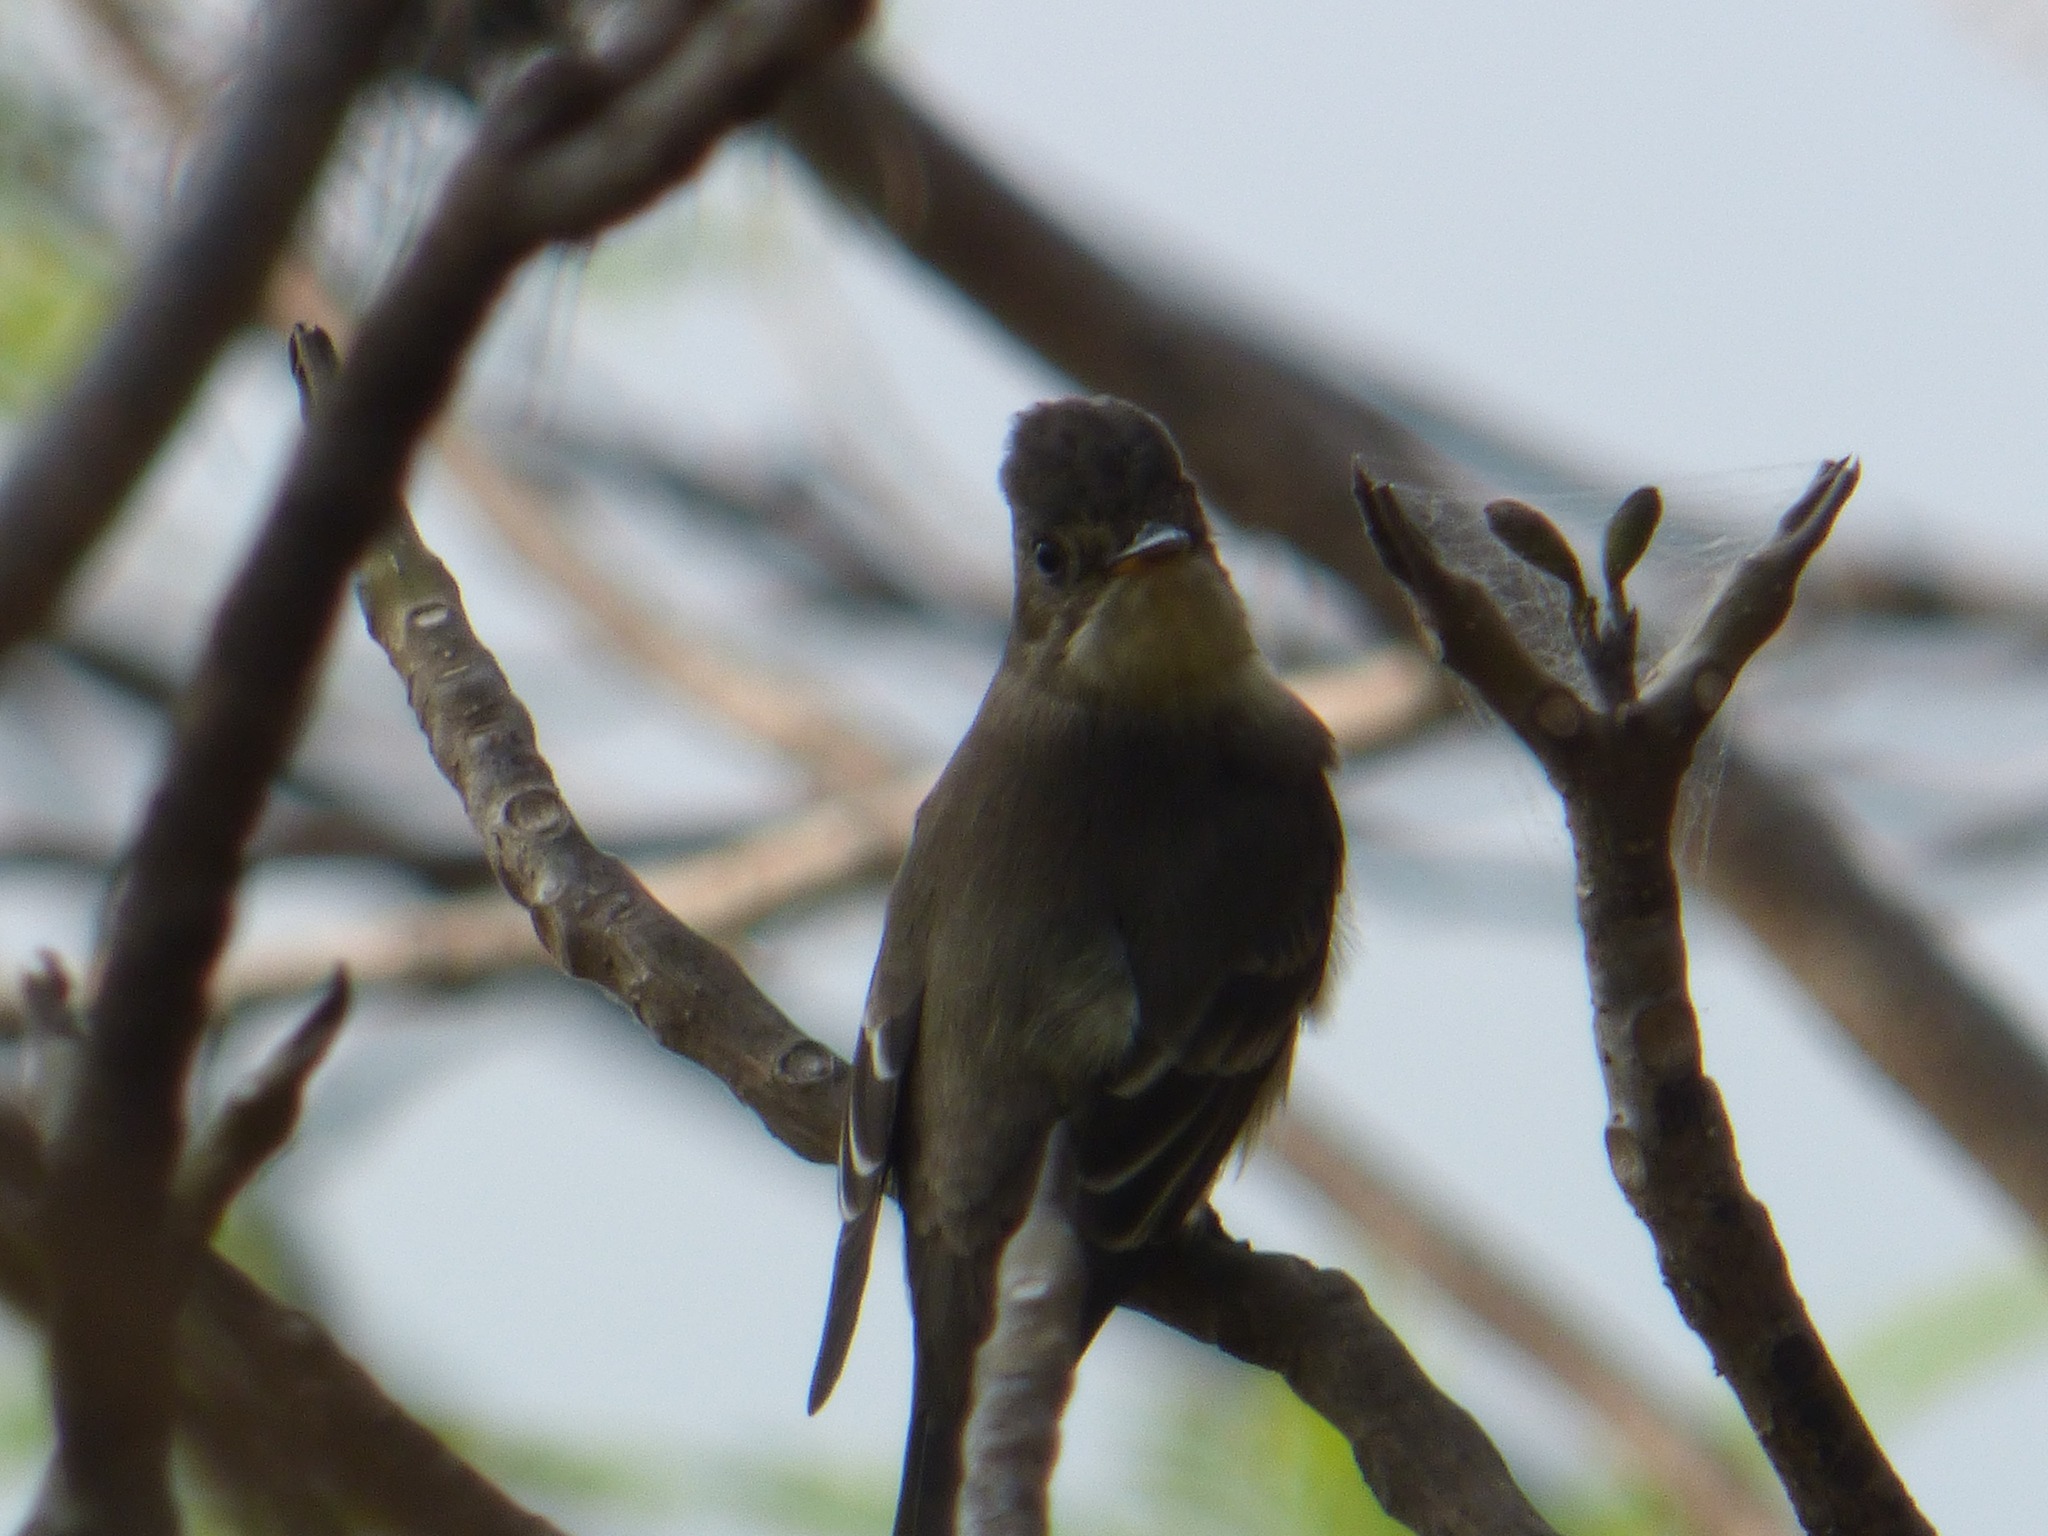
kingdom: Animalia
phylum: Chordata
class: Aves
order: Passeriformes
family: Tyrannidae
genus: Contopus
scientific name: Contopus sordidulus
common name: Western wood-pewee
